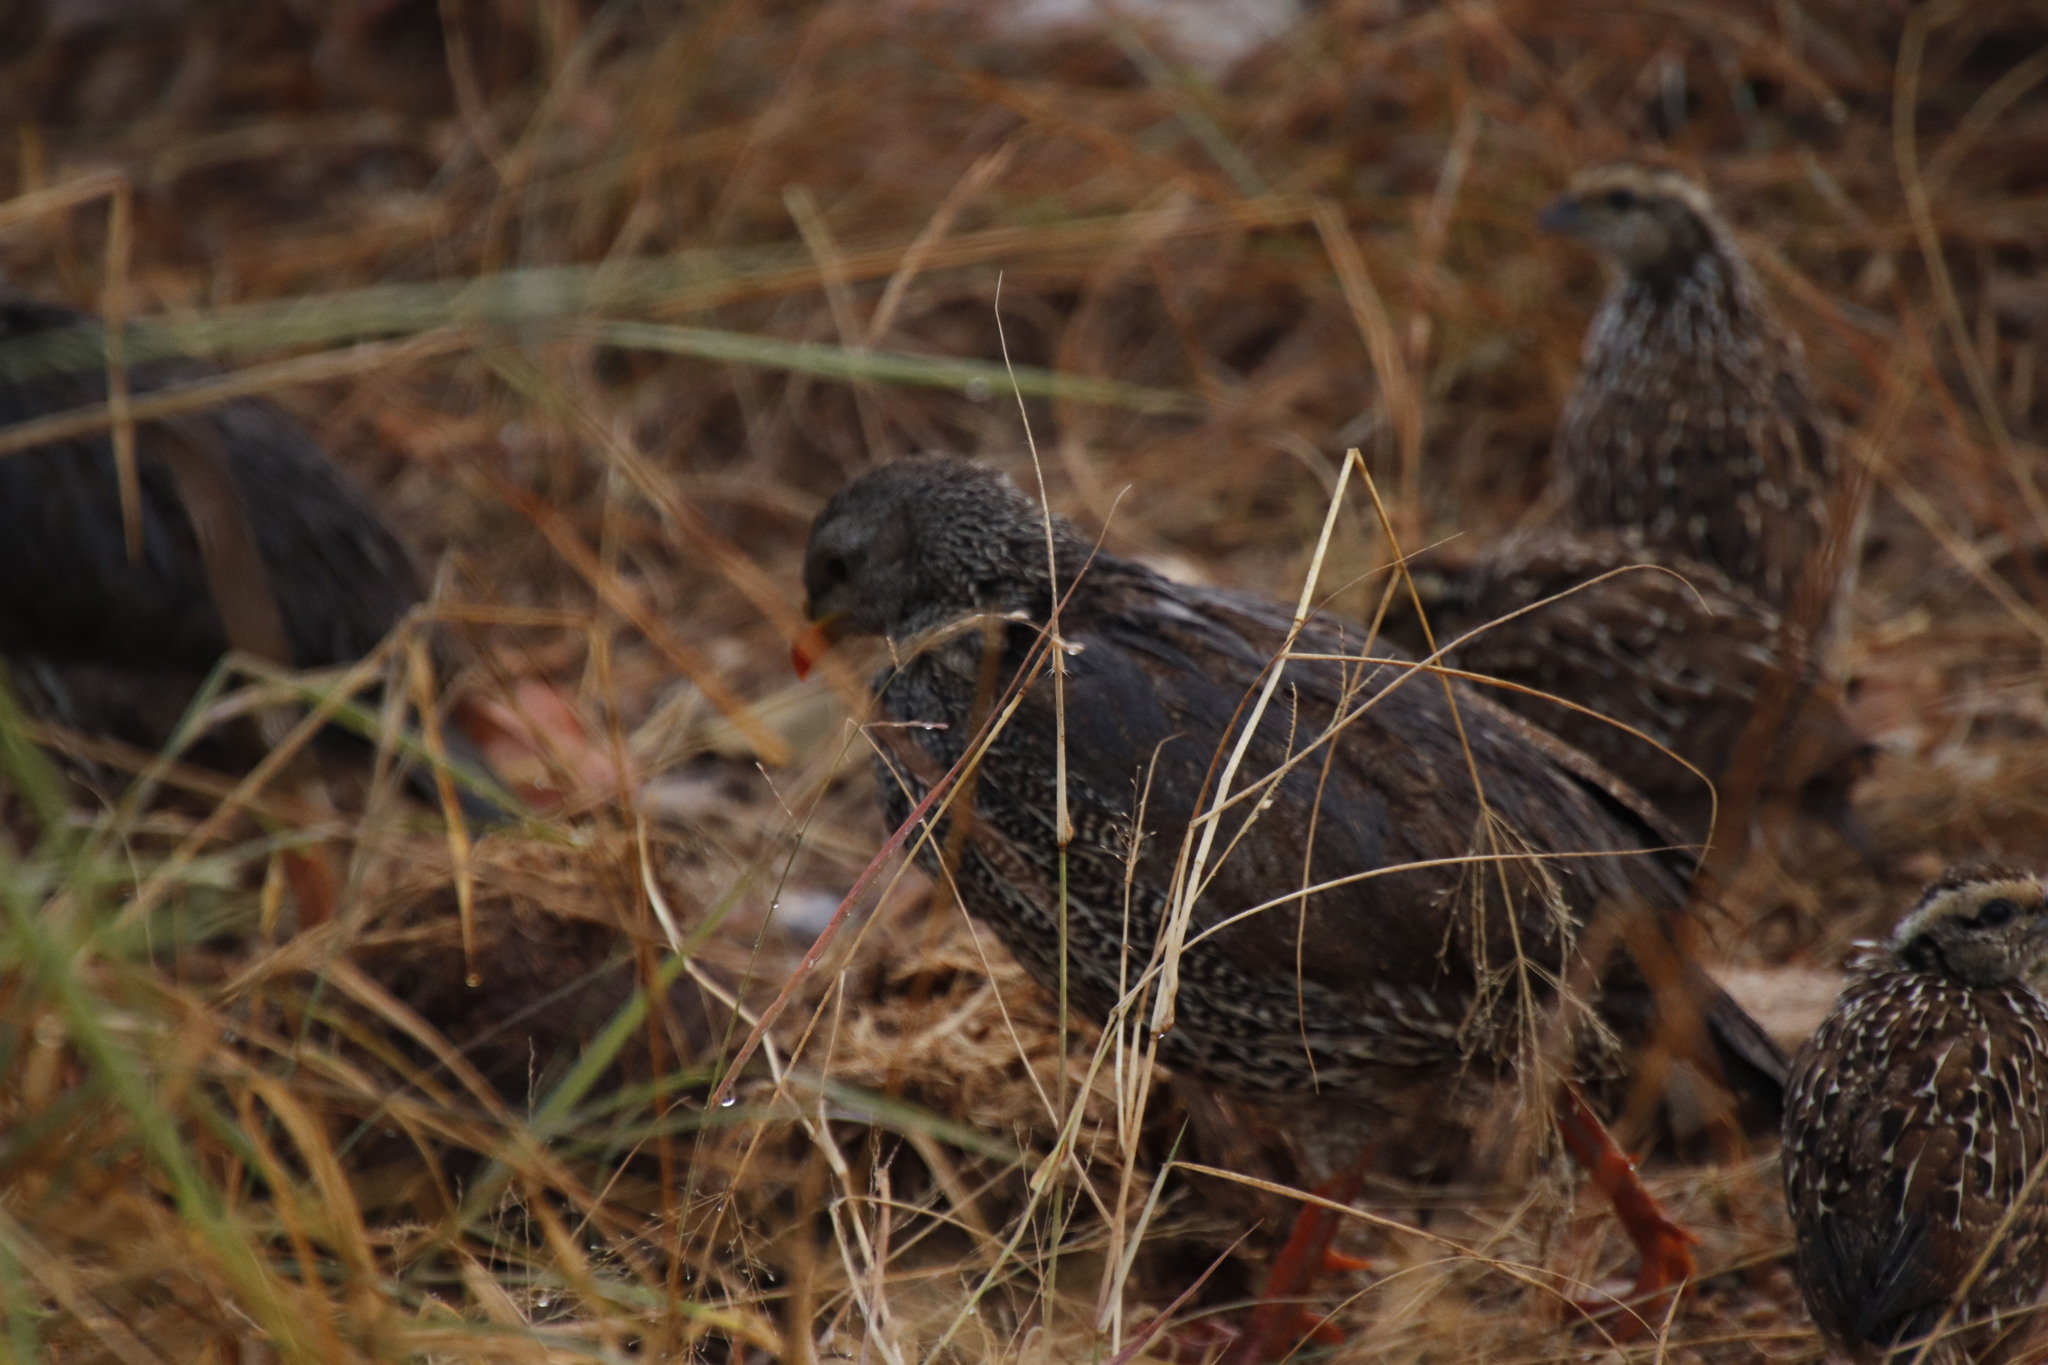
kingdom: Animalia
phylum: Chordata
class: Aves
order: Galliformes
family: Phasianidae
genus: Pternistis
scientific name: Pternistis natalensis
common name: Natal spurfowl
